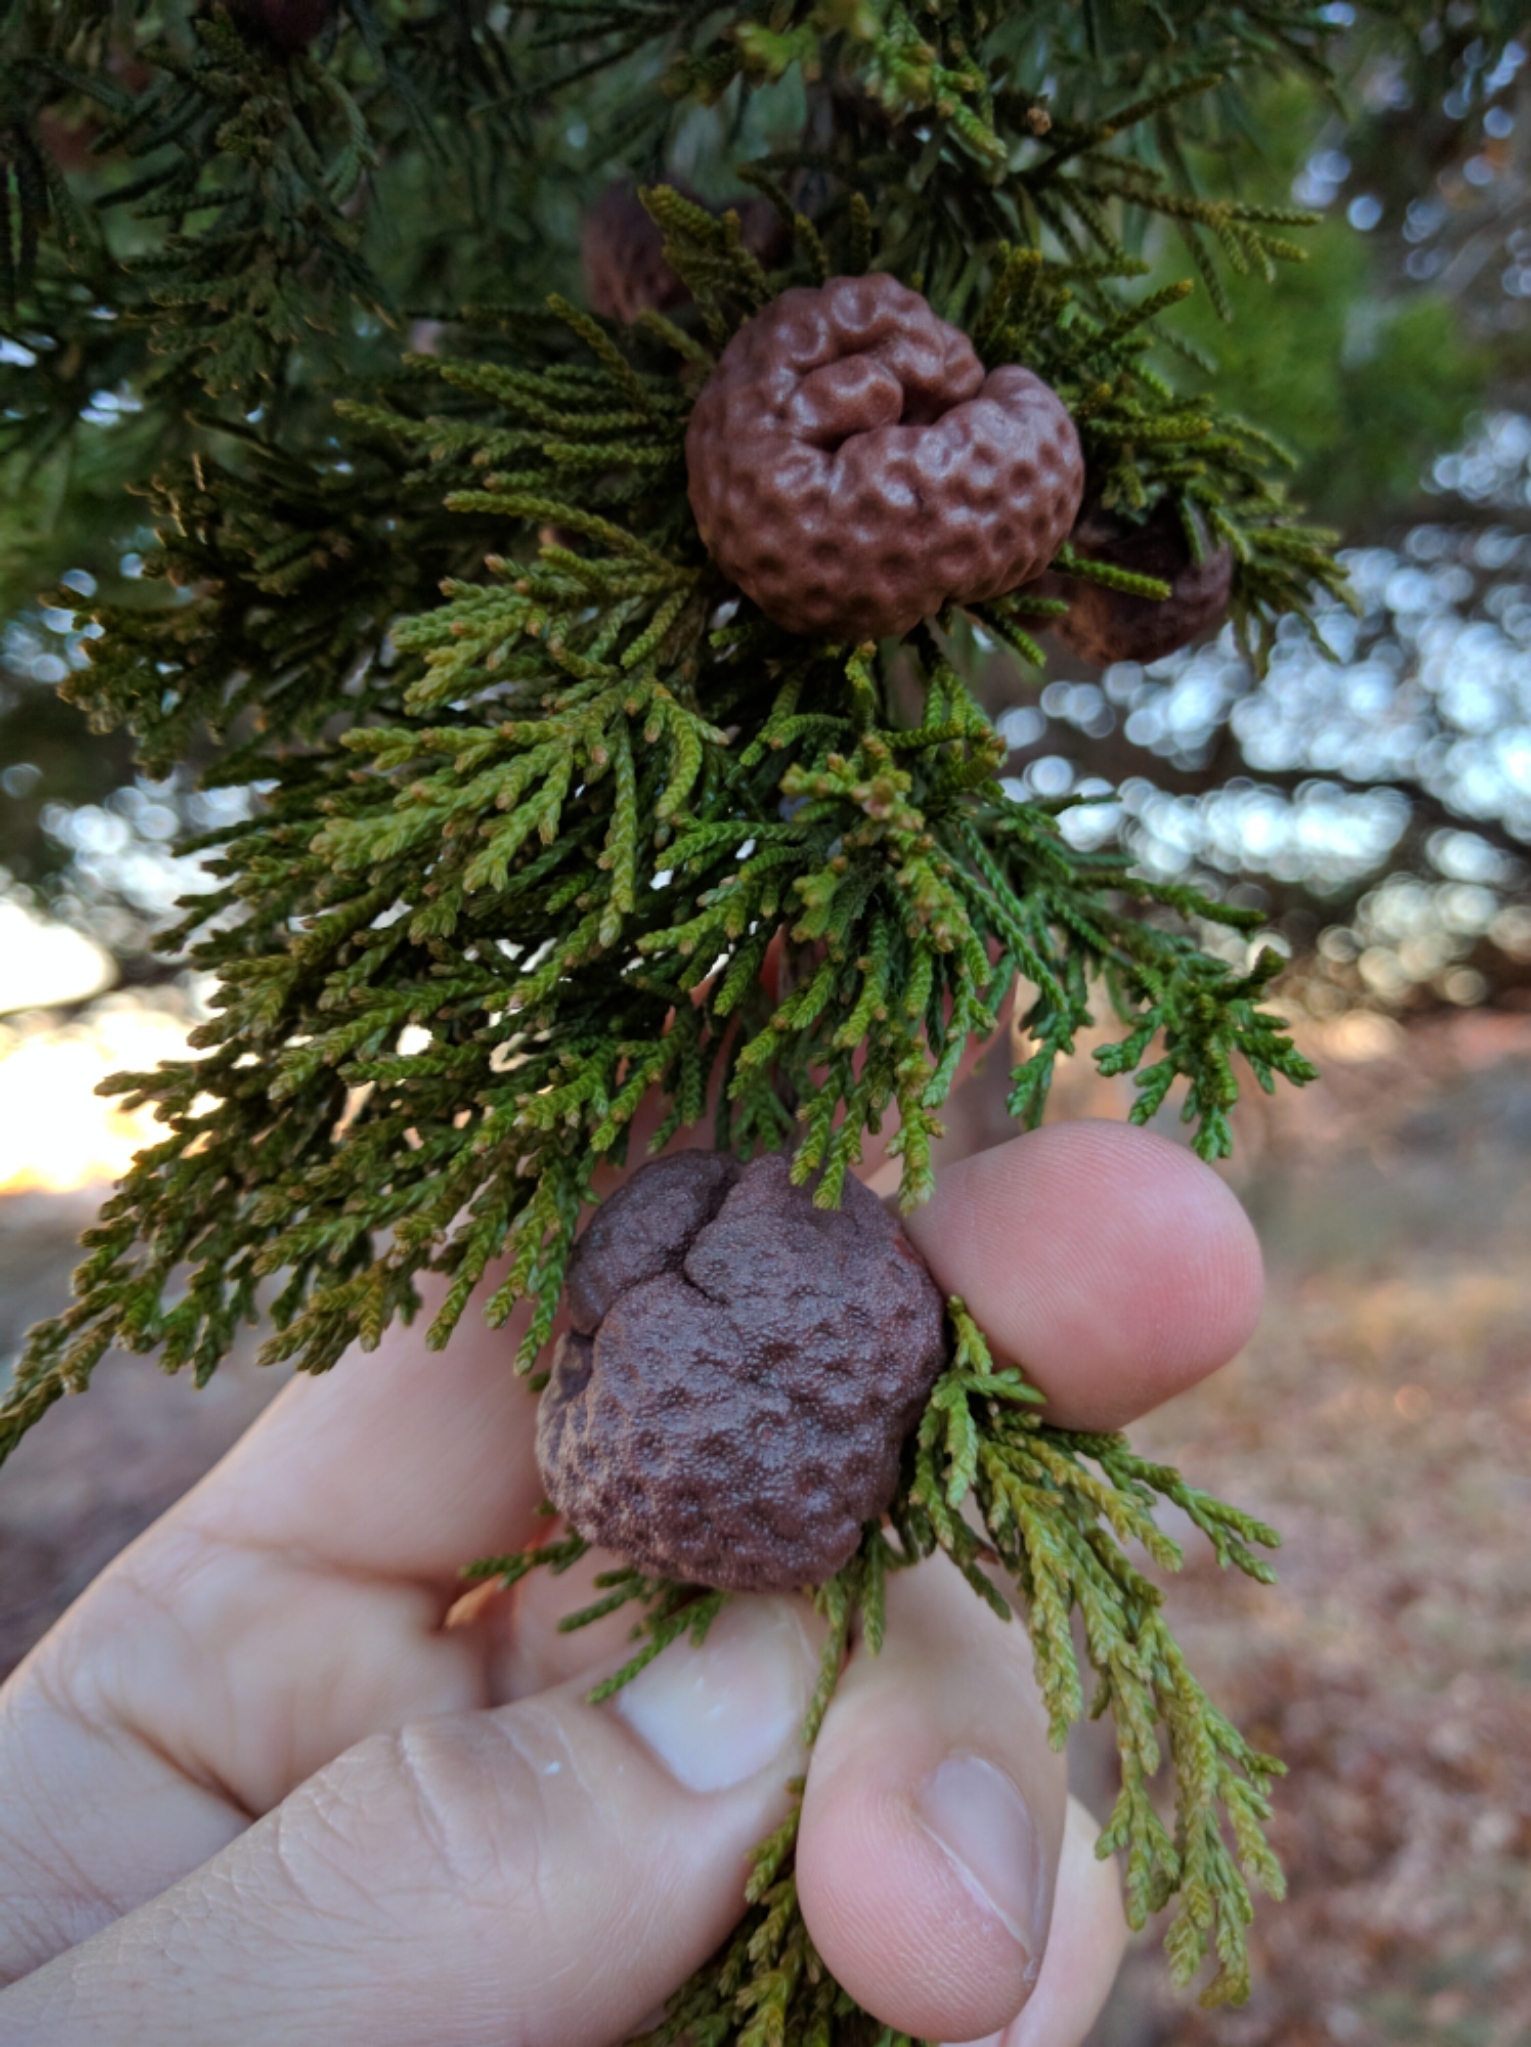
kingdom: Fungi
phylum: Basidiomycota
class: Pucciniomycetes
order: Pucciniales
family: Gymnosporangiaceae
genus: Gymnosporangium
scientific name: Gymnosporangium juniperi-virginianae
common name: Juniper-apple rust
